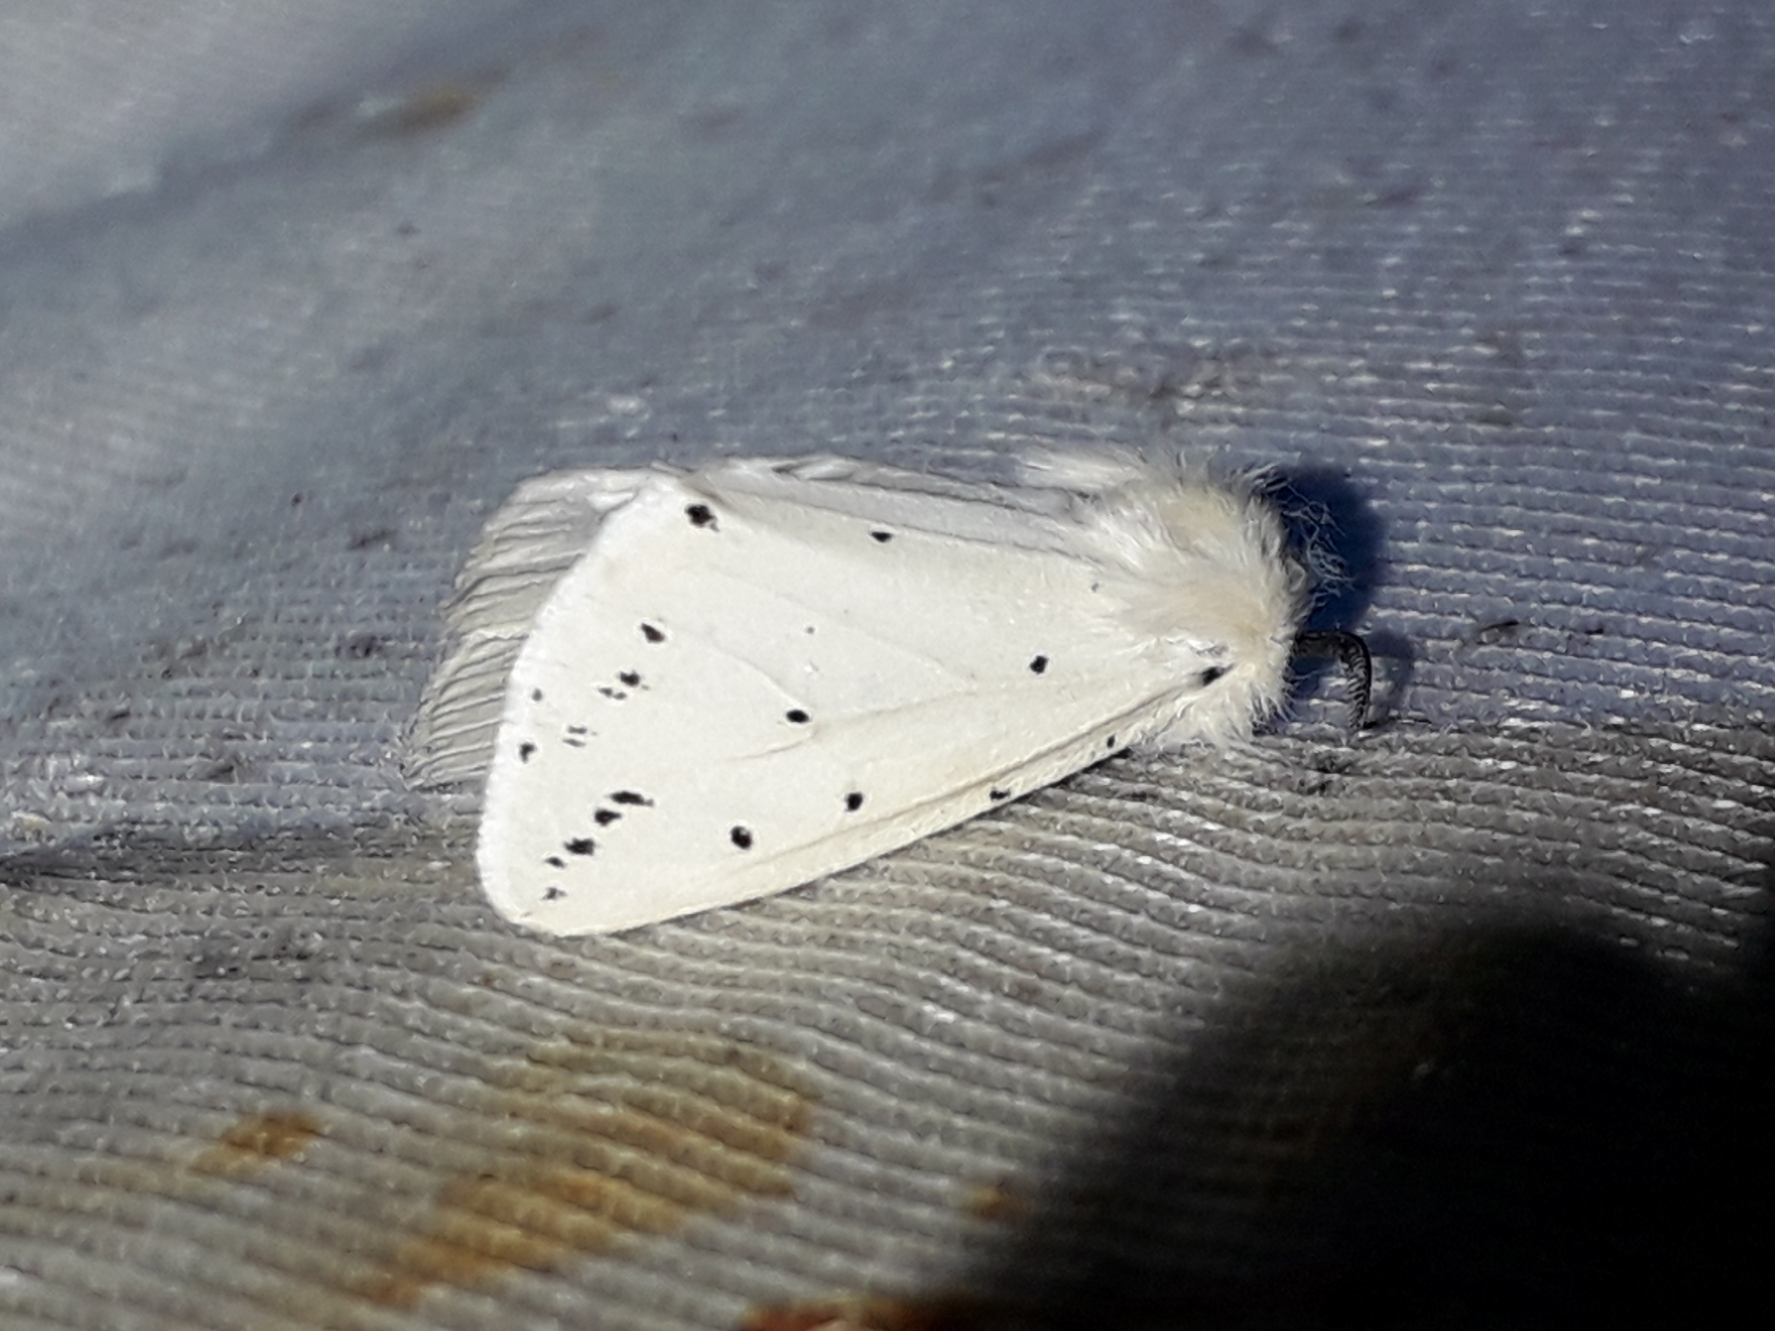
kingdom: Animalia
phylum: Arthropoda
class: Insecta
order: Lepidoptera
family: Erebidae
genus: Spilosoma
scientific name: Spilosoma lubricipeda
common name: White ermine
